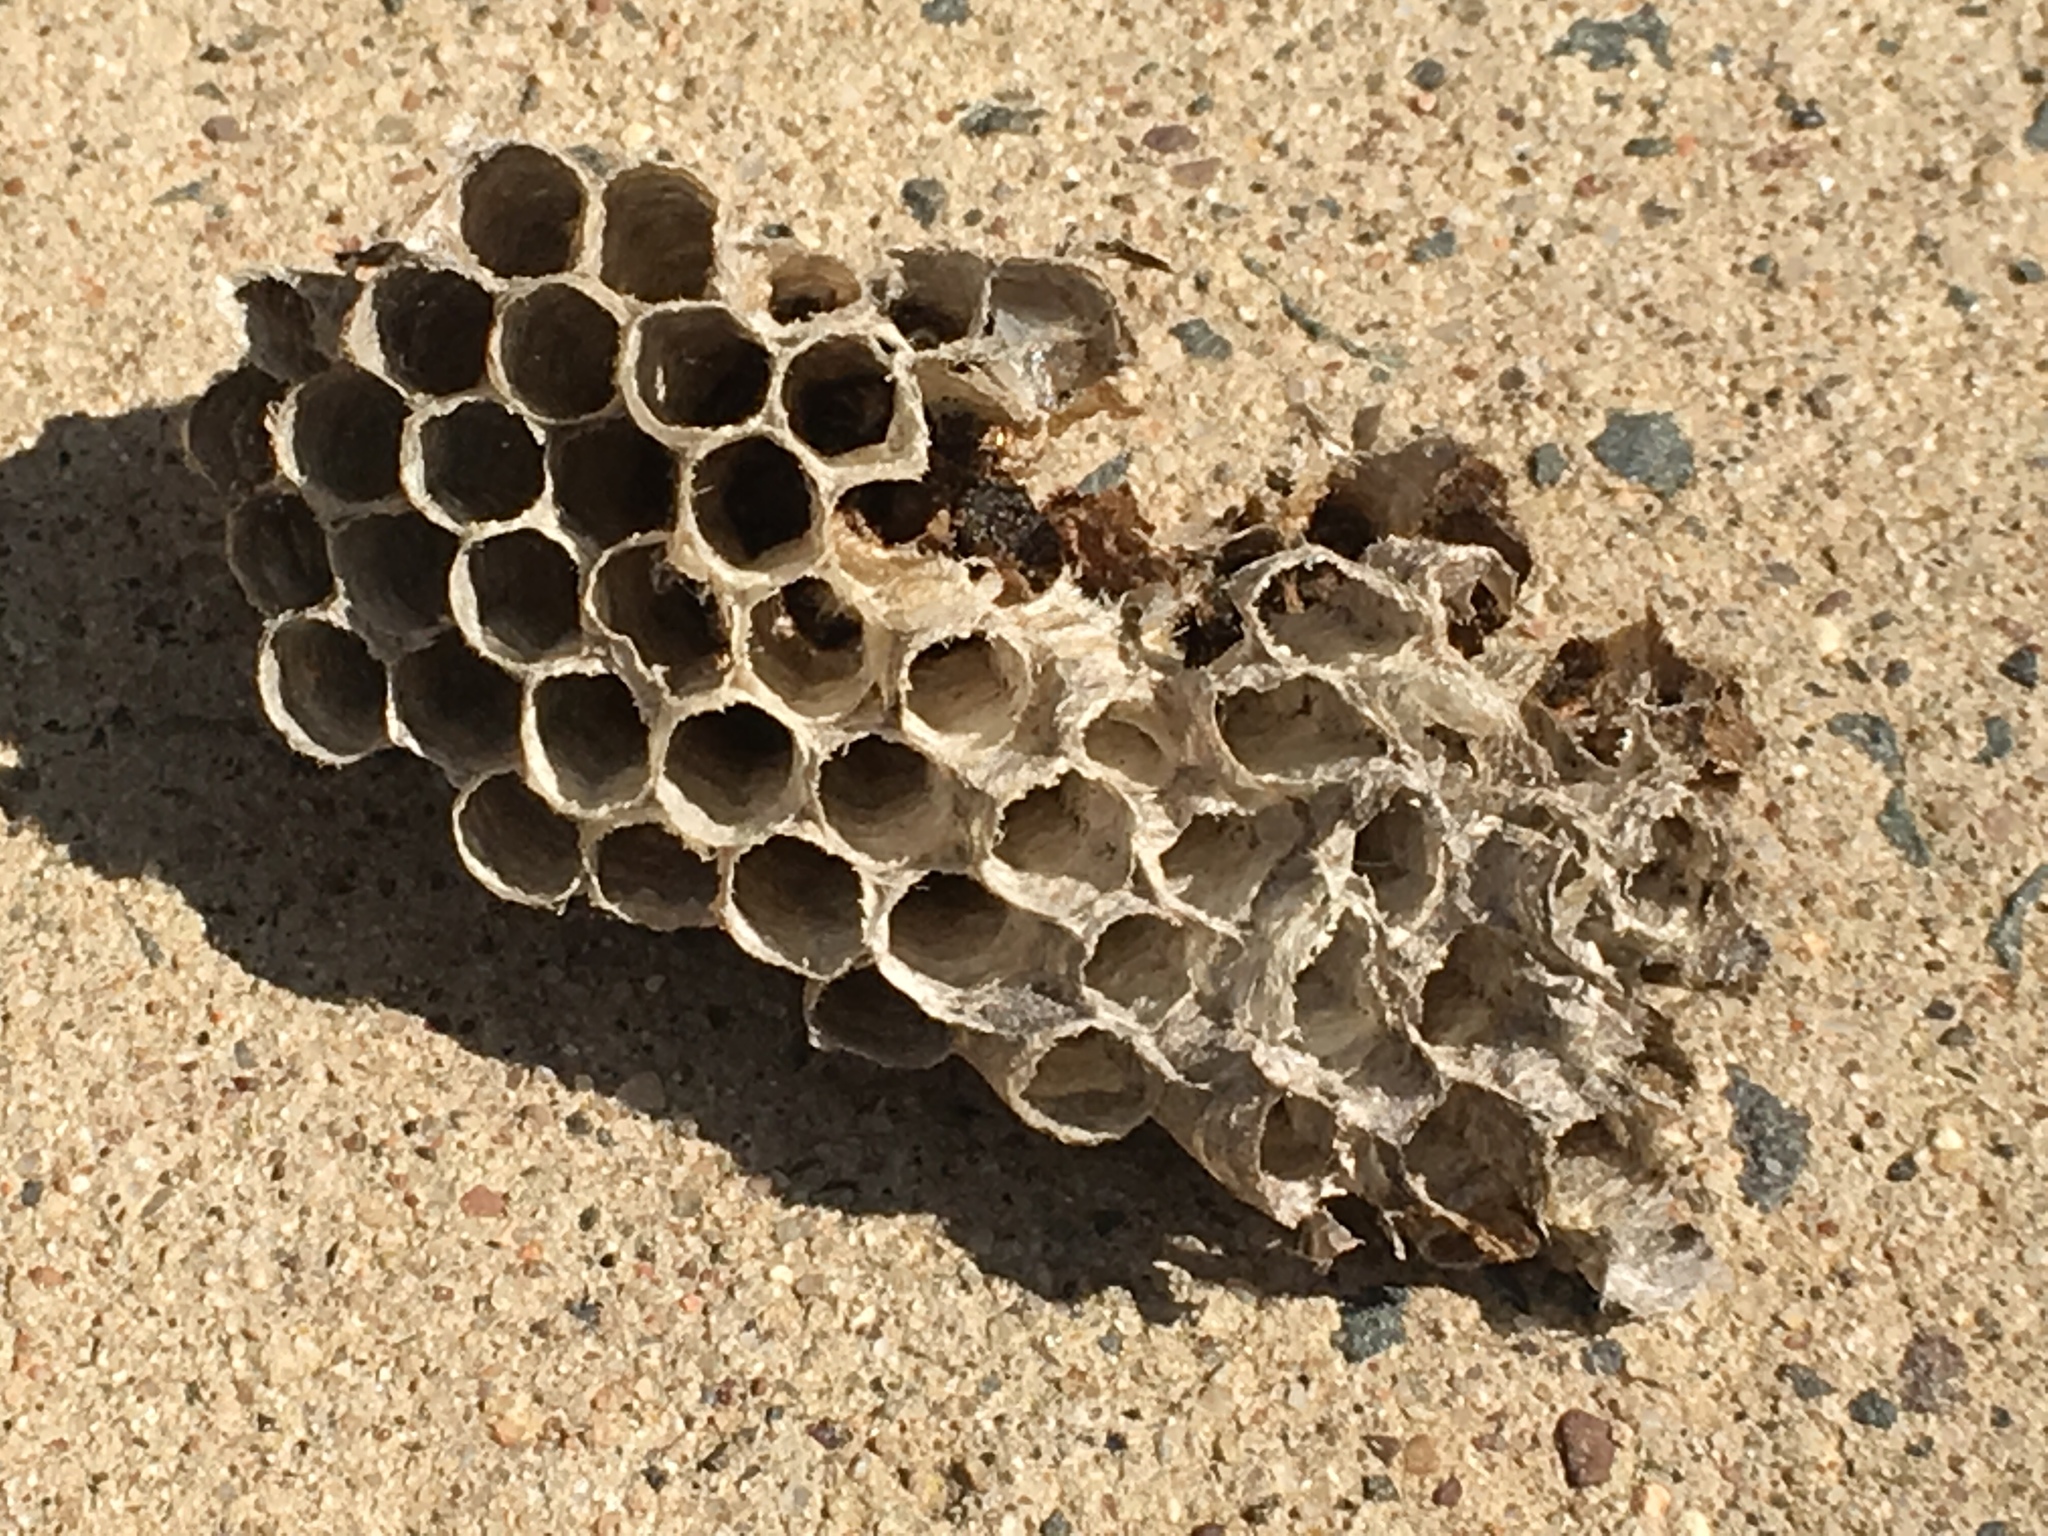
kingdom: Animalia
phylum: Arthropoda
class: Insecta
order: Hymenoptera
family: Eumenidae
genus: Polistes
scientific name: Polistes
